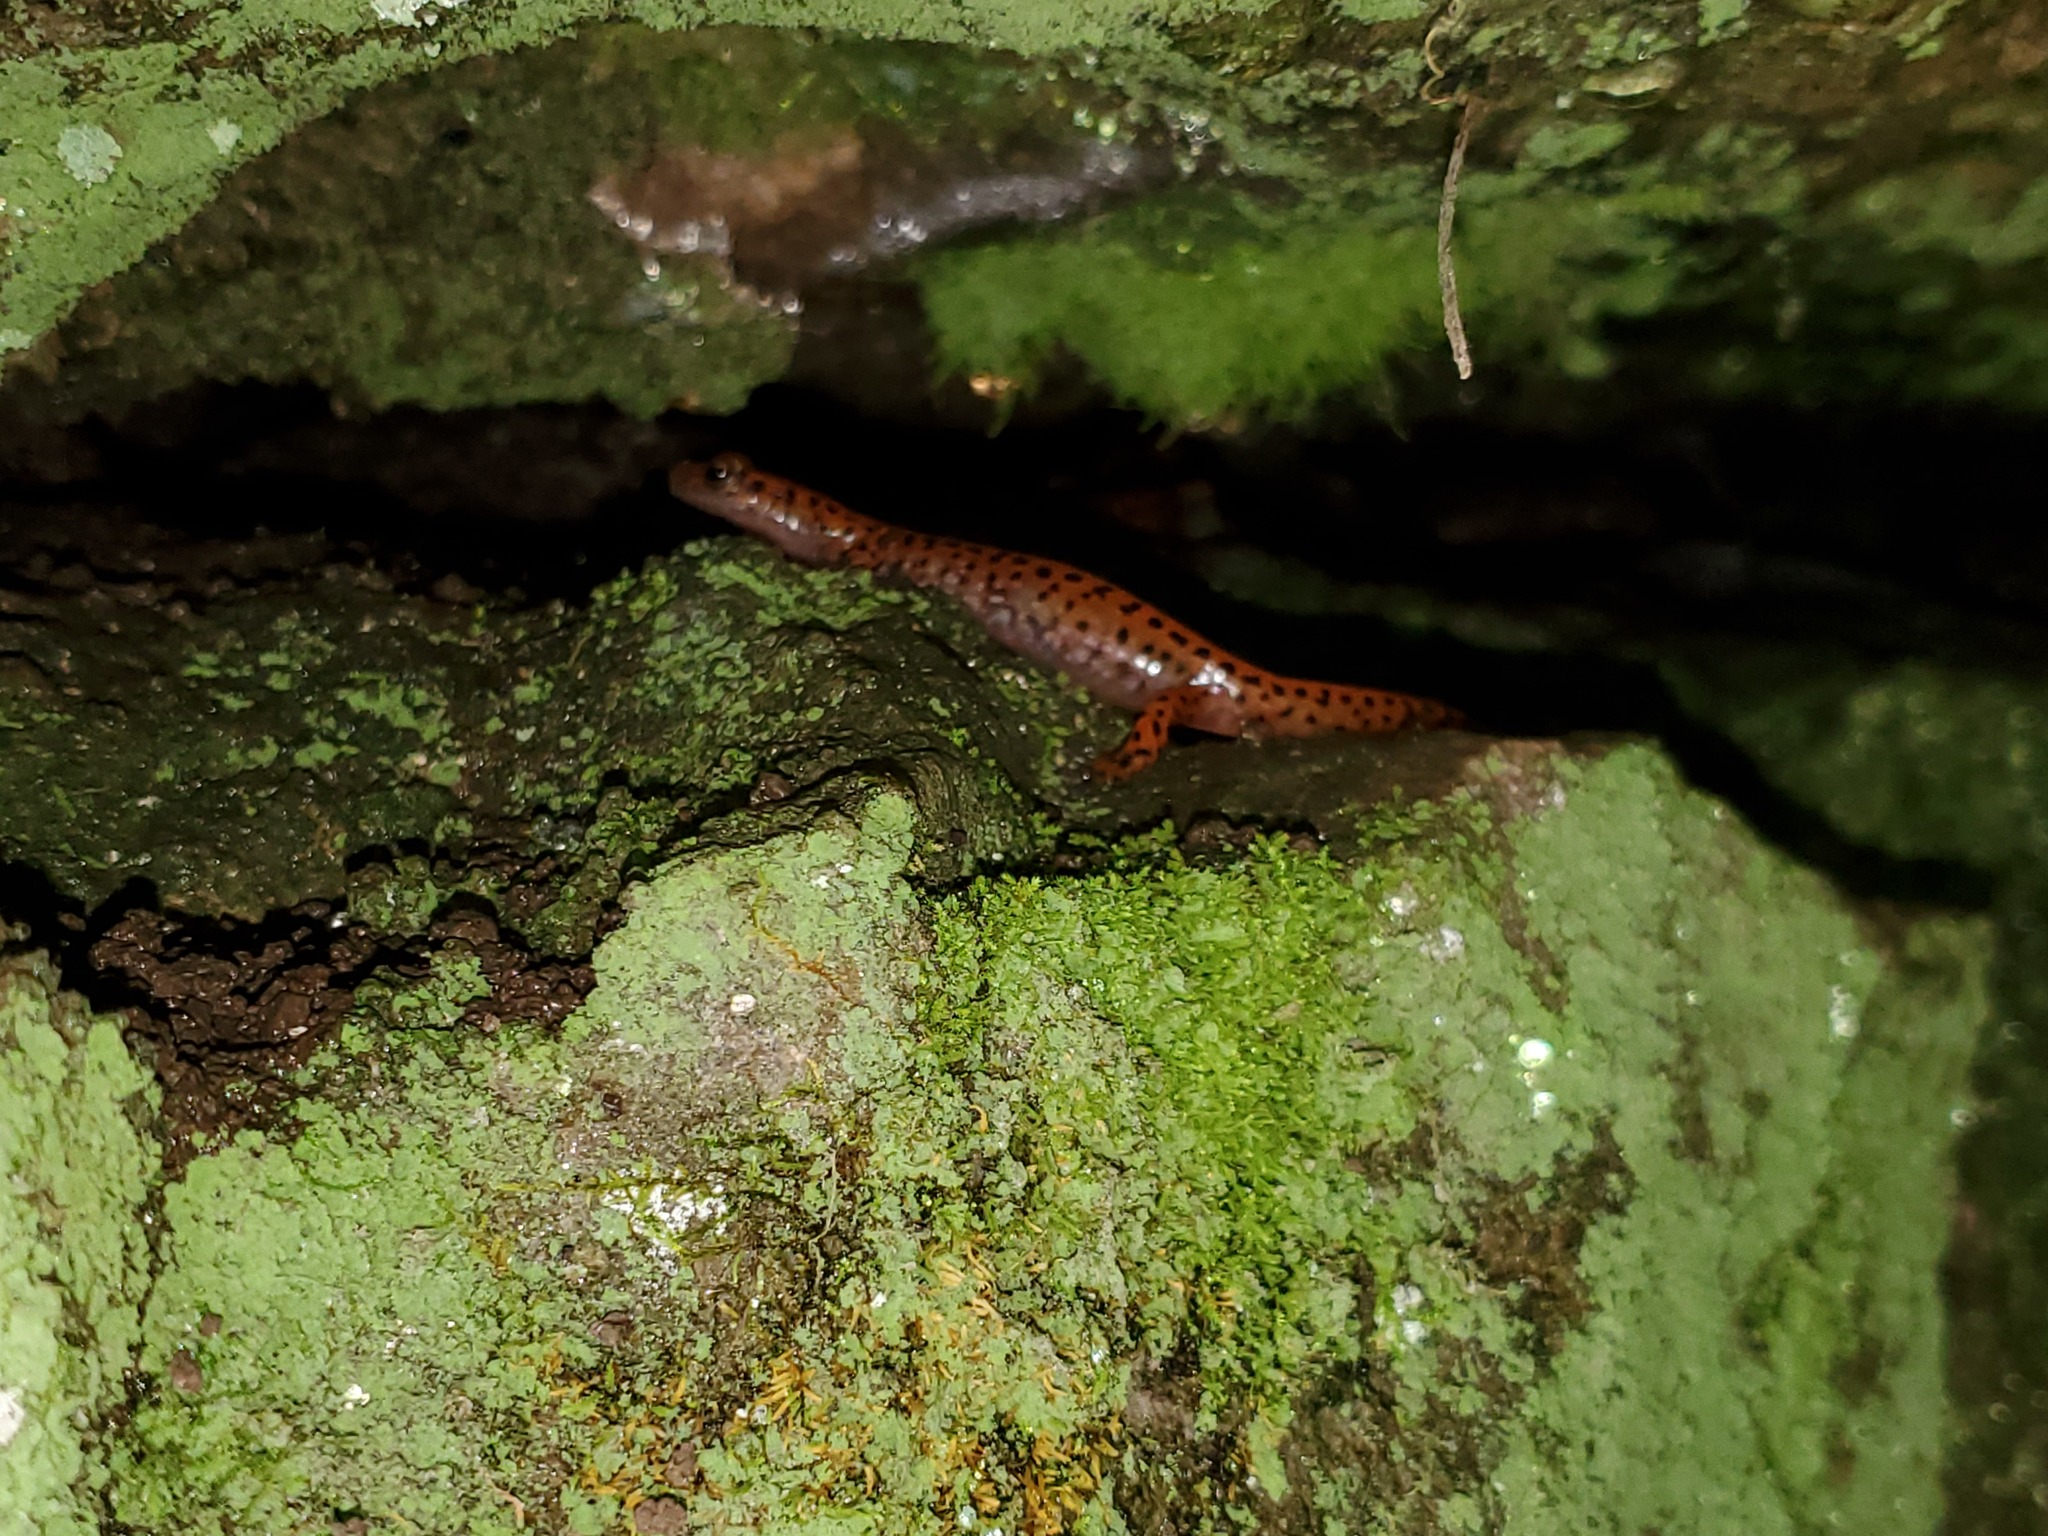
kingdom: Animalia
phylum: Chordata
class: Amphibia
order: Caudata
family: Plethodontidae
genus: Eurycea
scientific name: Eurycea lucifuga
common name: Cave salamander
